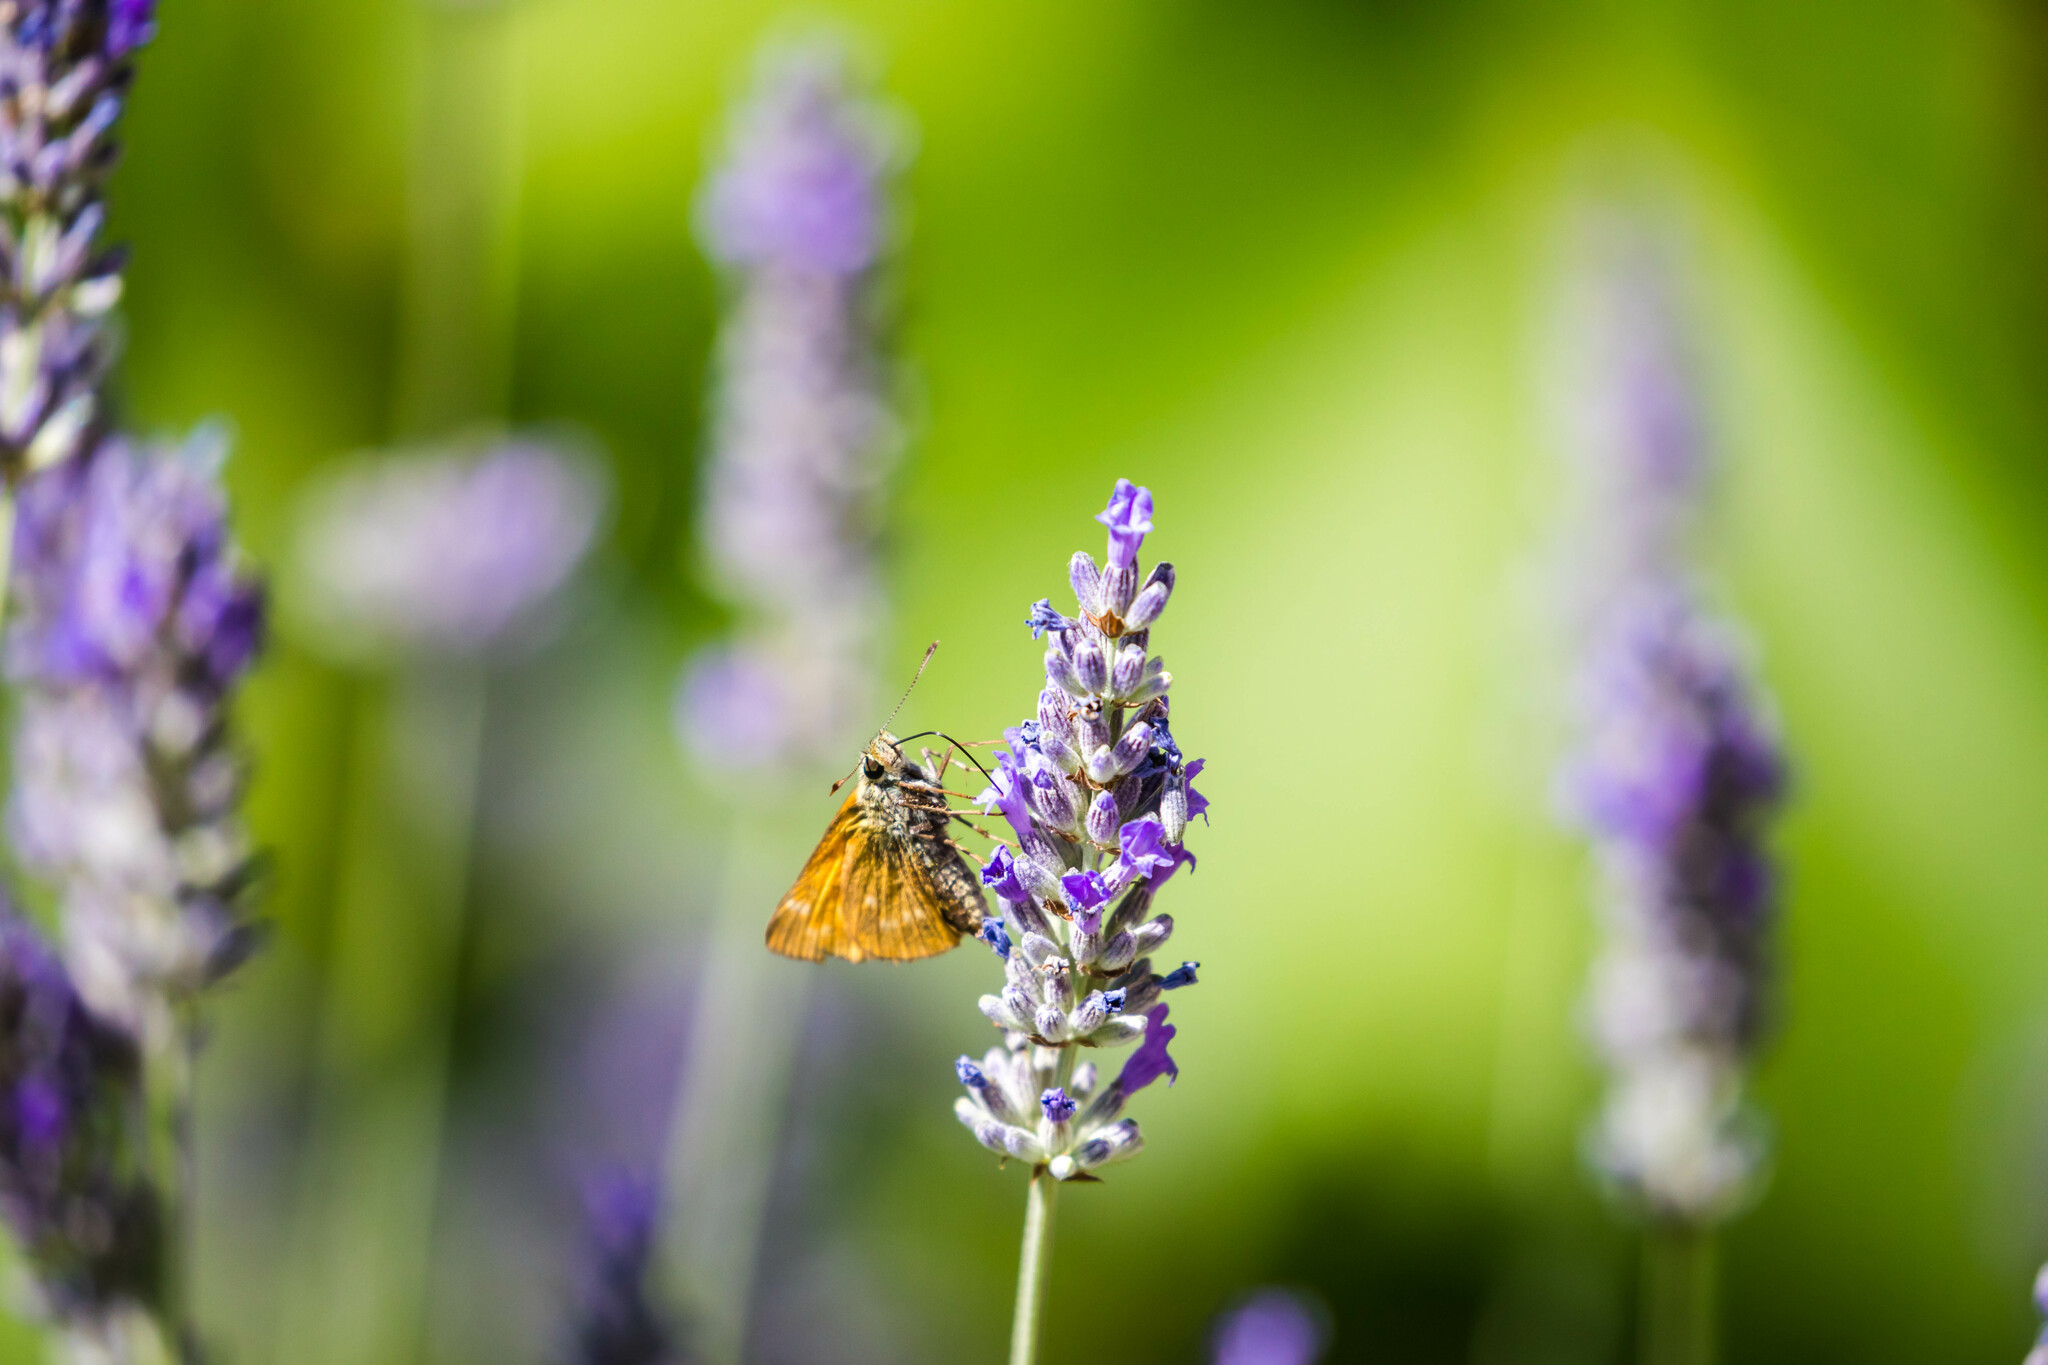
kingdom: Animalia
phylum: Arthropoda
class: Insecta
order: Lepidoptera
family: Hesperiidae
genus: Ochlodes
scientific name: Ochlodes venata
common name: Large skipper
